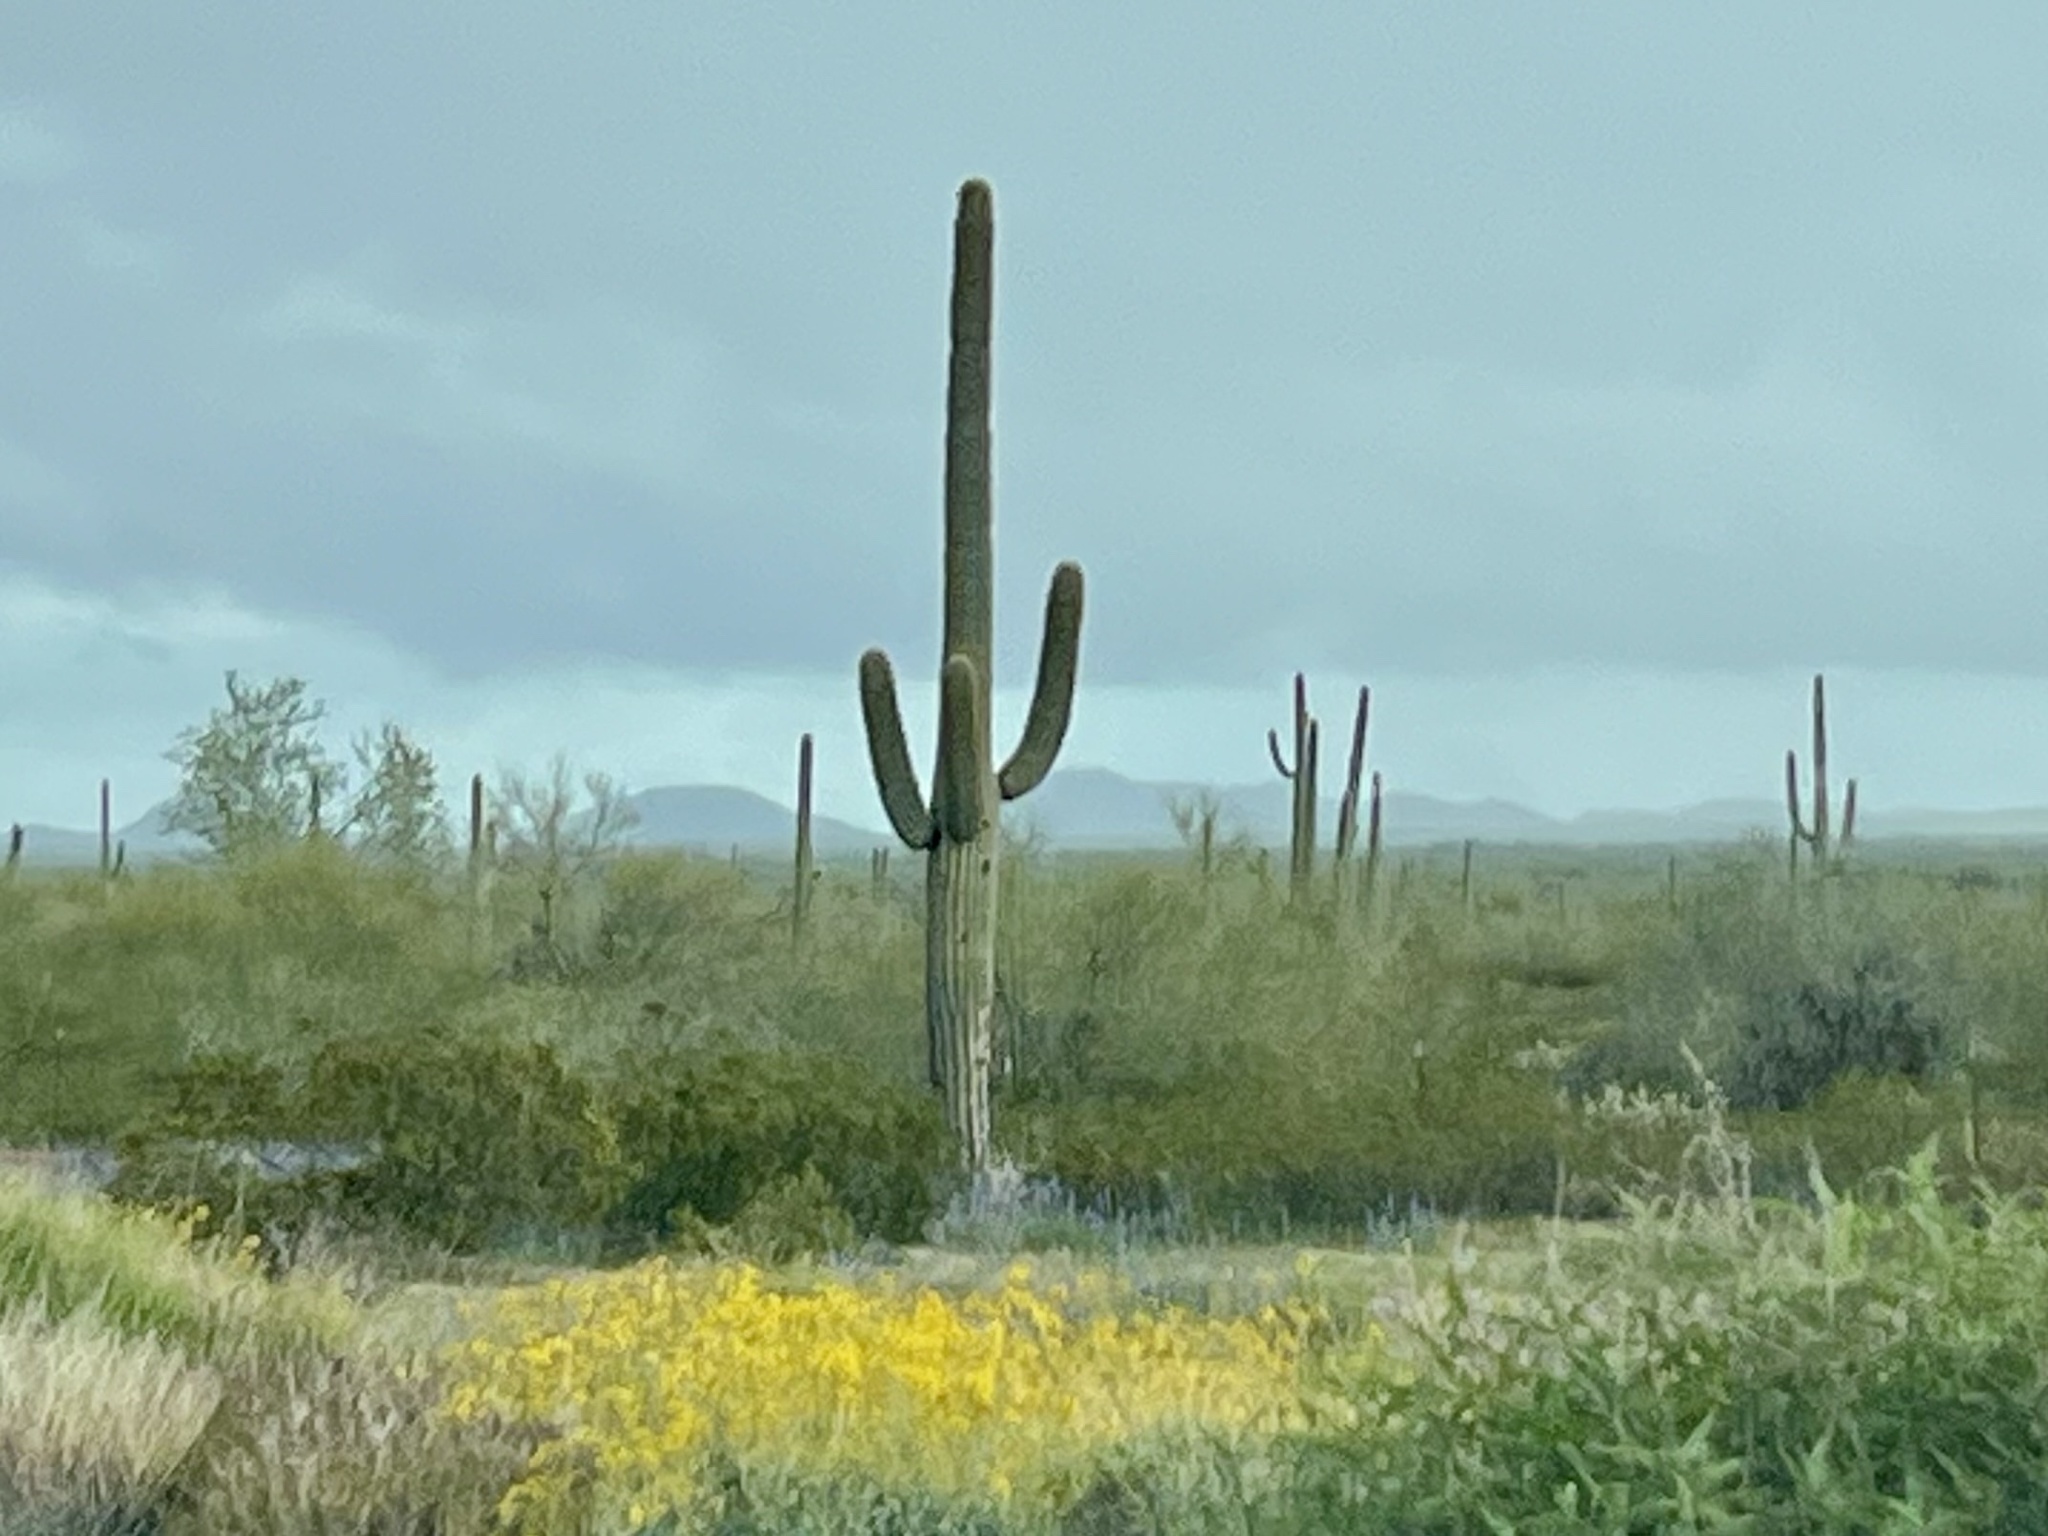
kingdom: Plantae
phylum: Tracheophyta
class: Magnoliopsida
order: Caryophyllales
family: Cactaceae
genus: Carnegiea
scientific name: Carnegiea gigantea
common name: Saguaro
